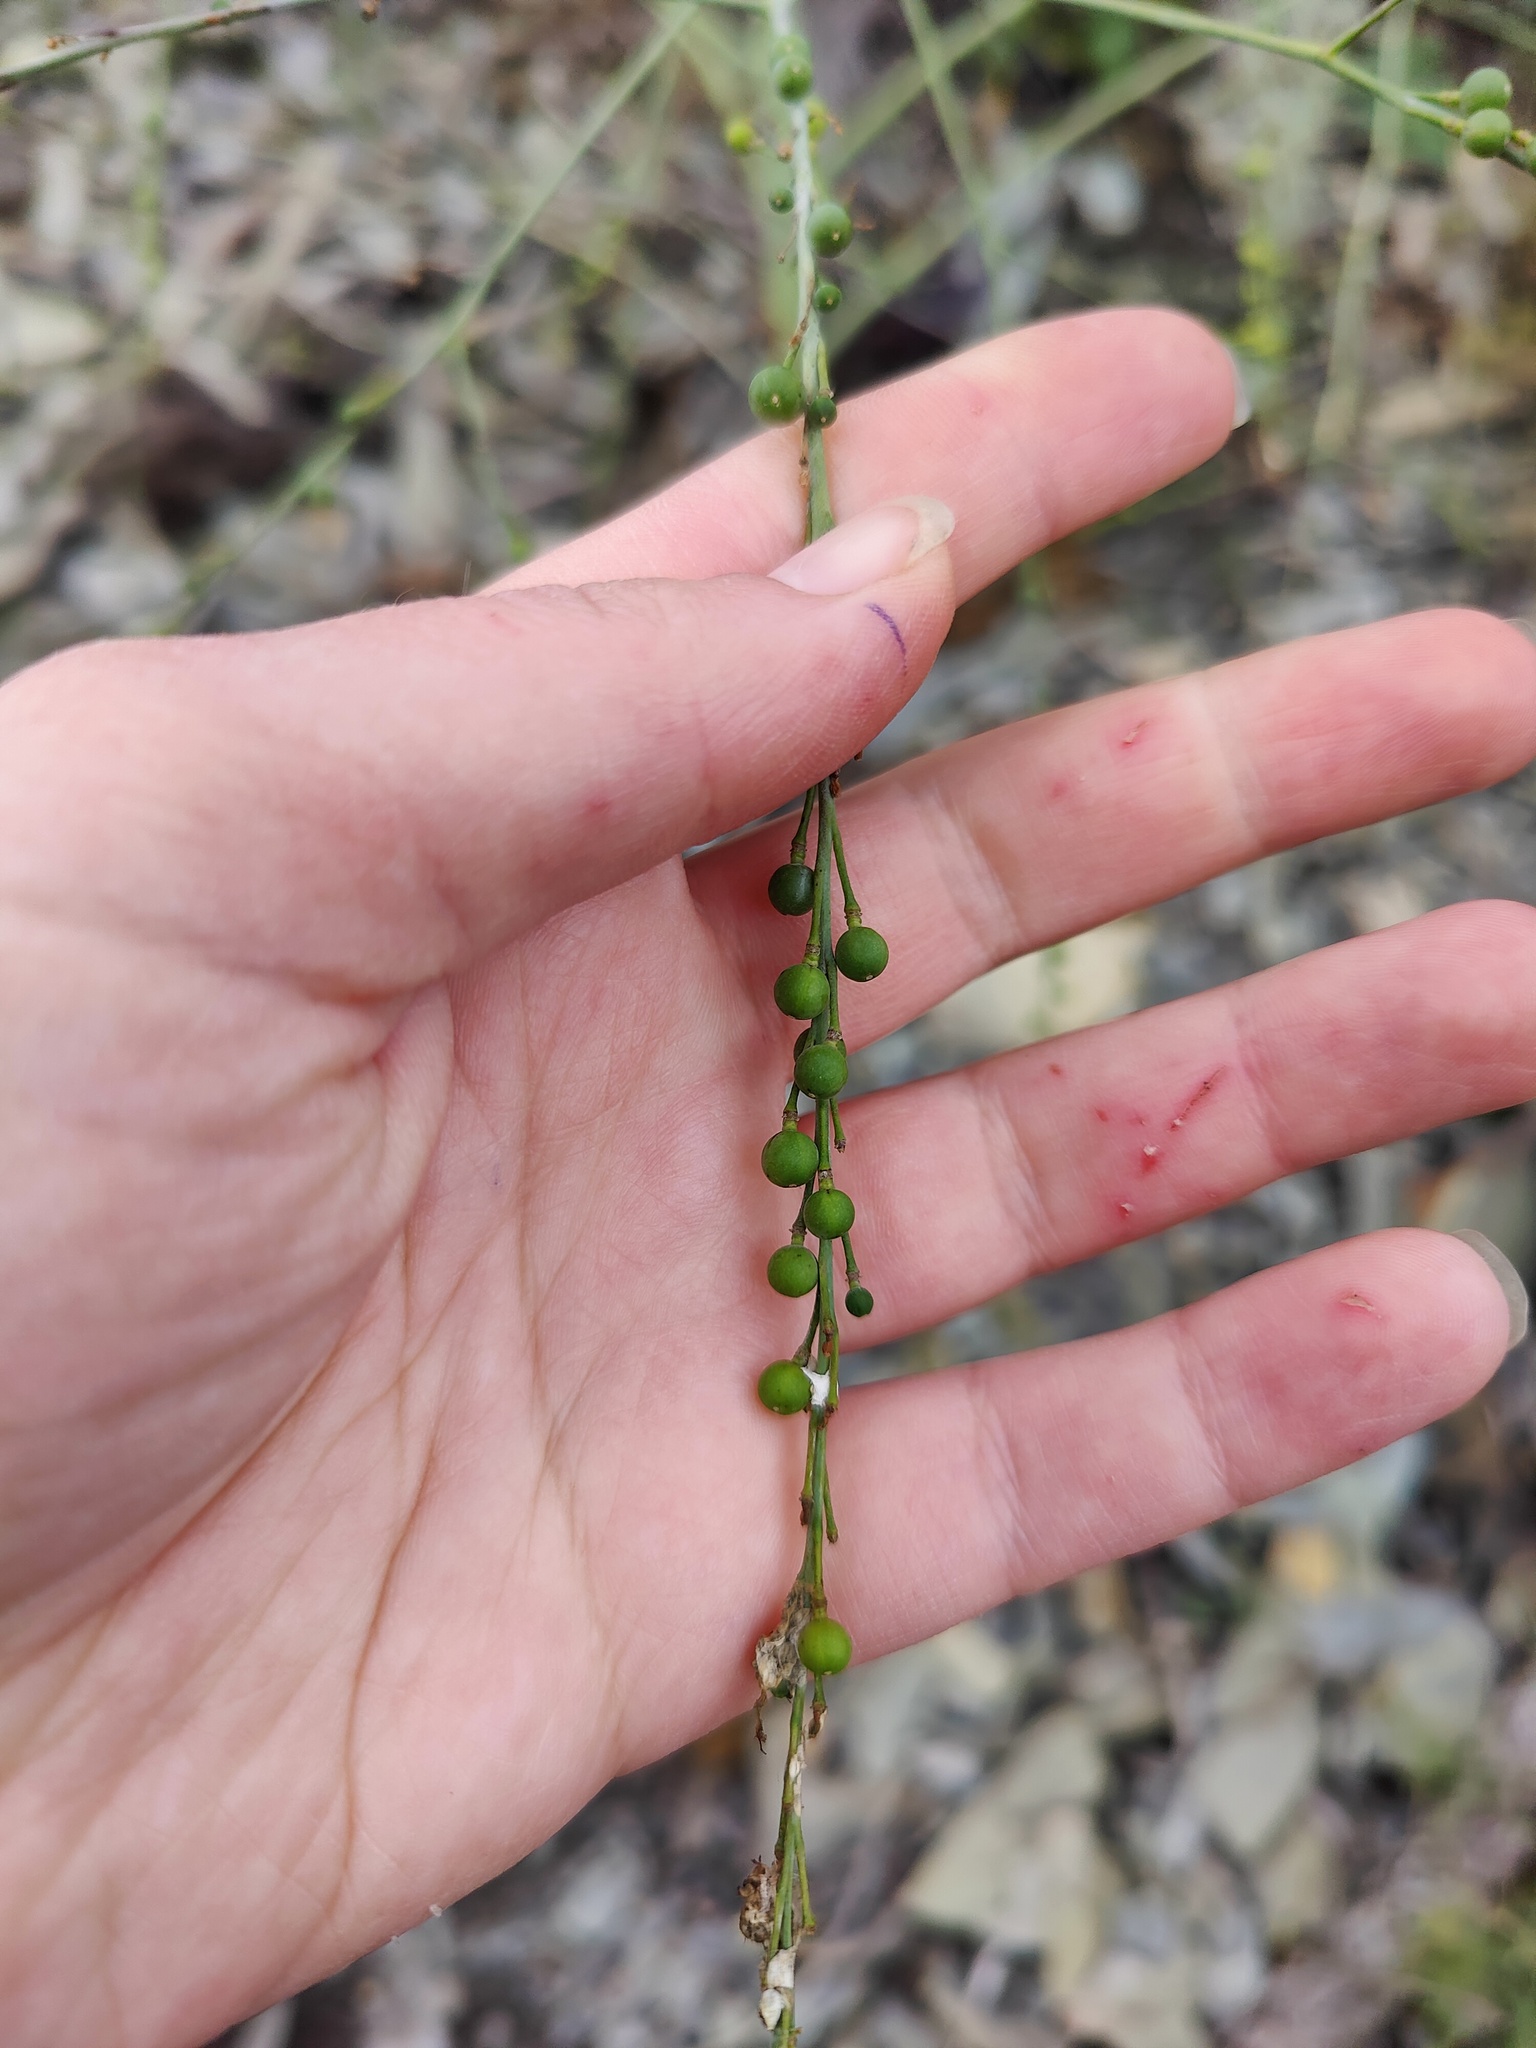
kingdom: Plantae
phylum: Tracheophyta
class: Magnoliopsida
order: Brassicales
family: Brassicaceae
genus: Crambe
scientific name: Crambe koktebelica
